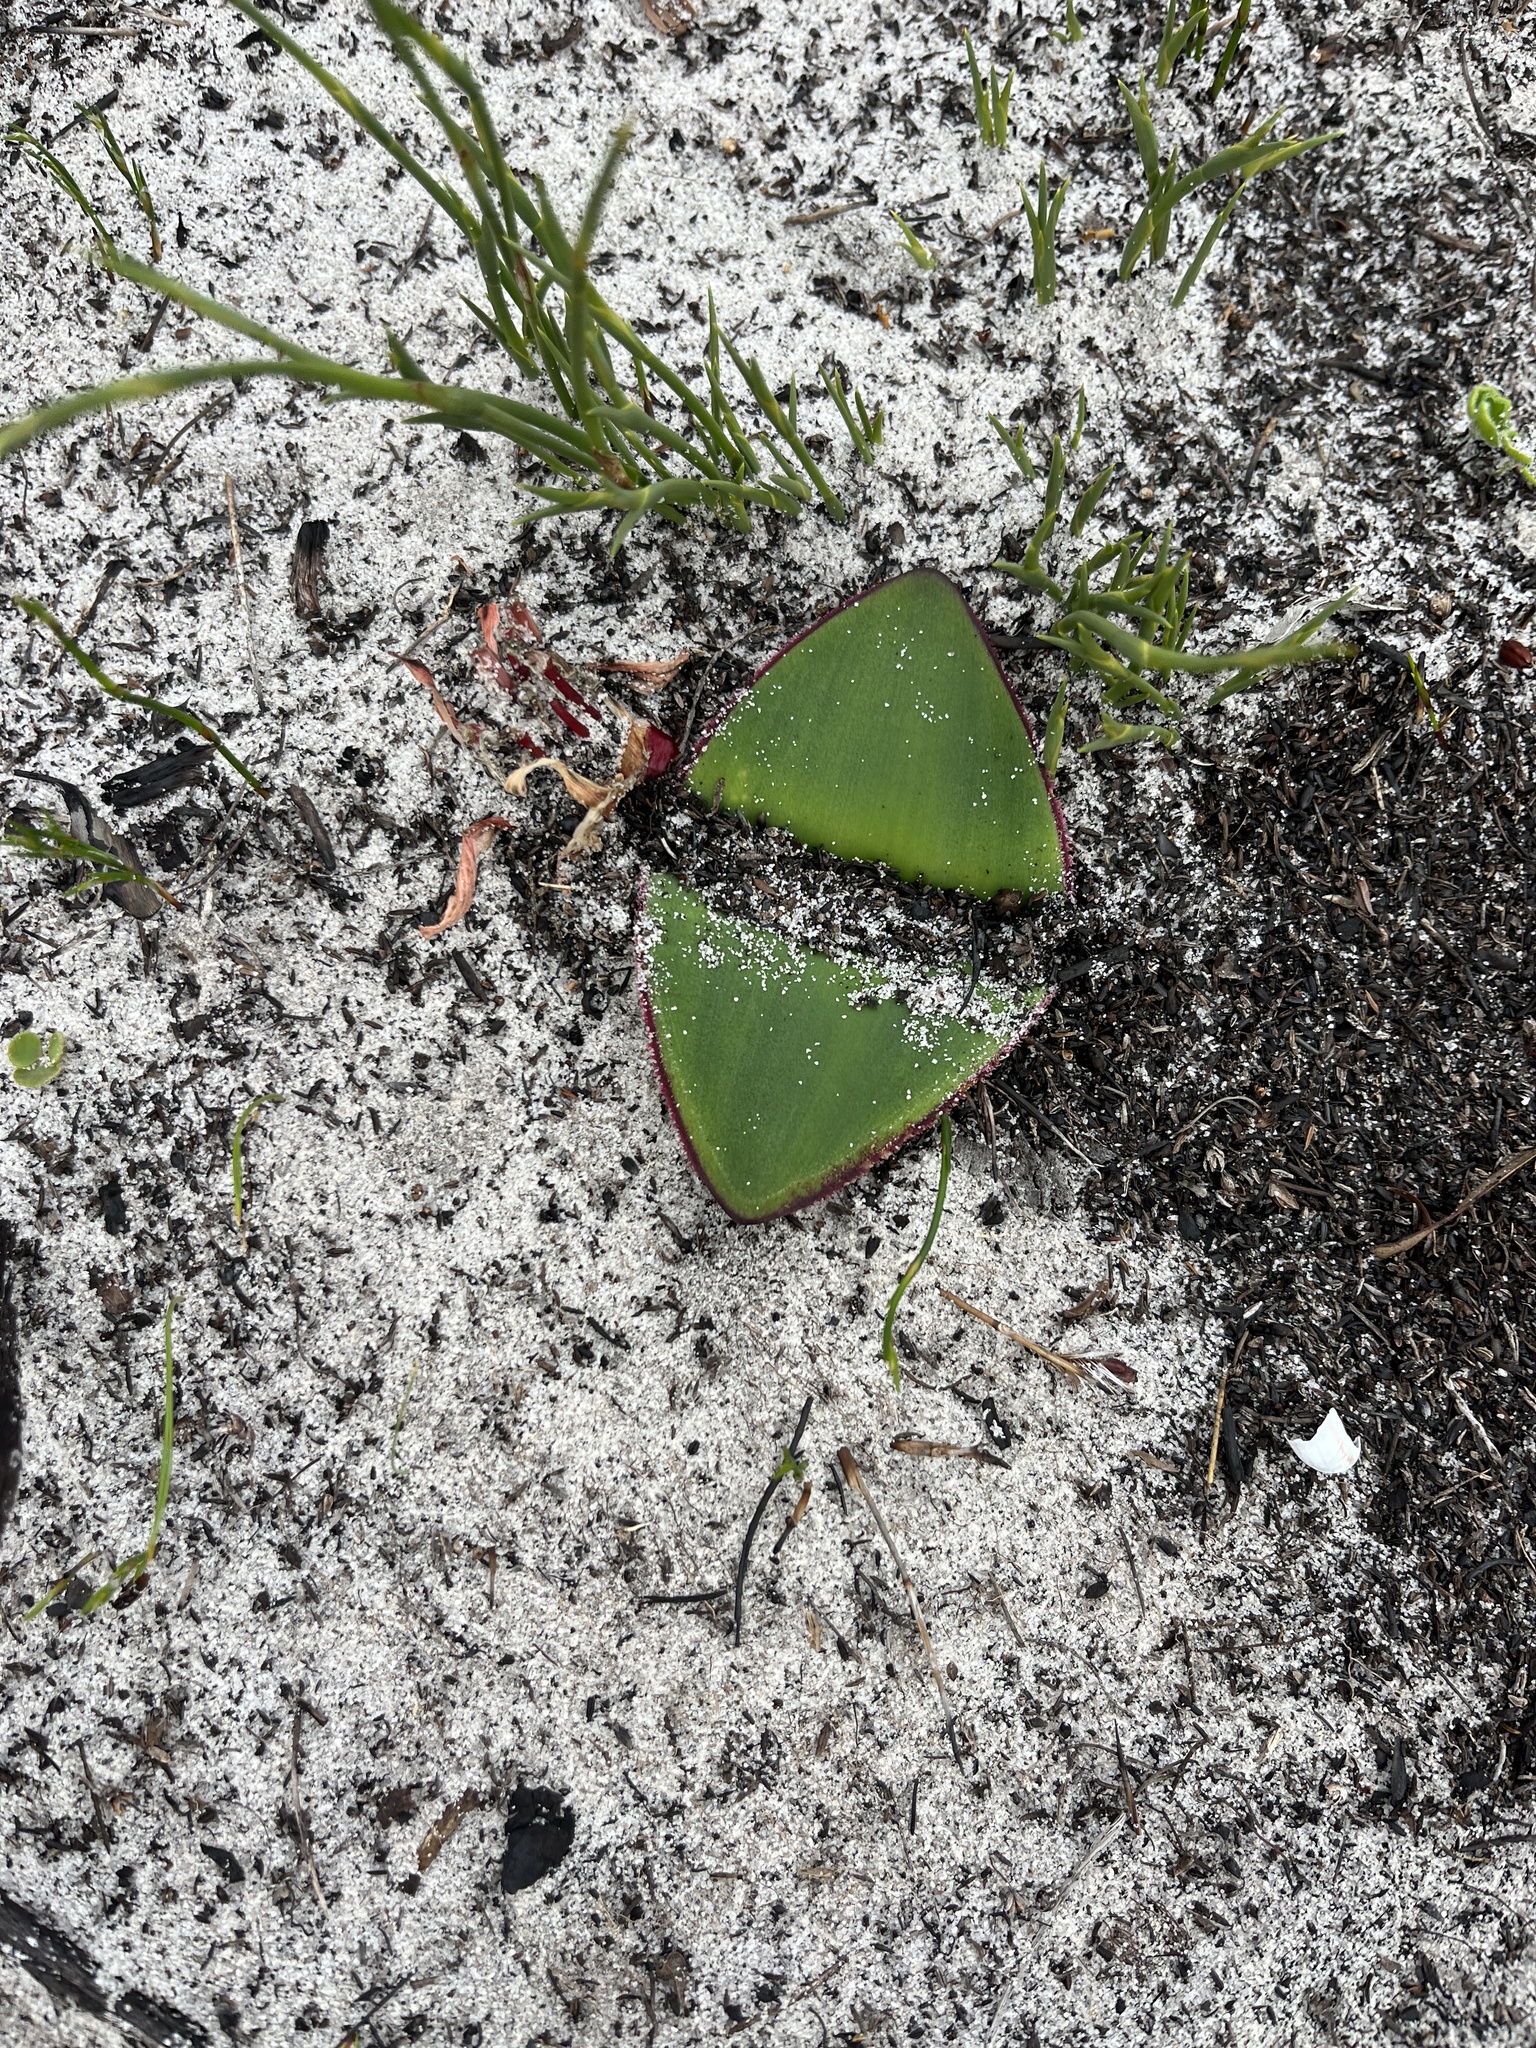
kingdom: Plantae
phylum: Tracheophyta
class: Liliopsida
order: Asparagales
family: Amaryllidaceae
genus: Haemanthus
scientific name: Haemanthus sanguineus
